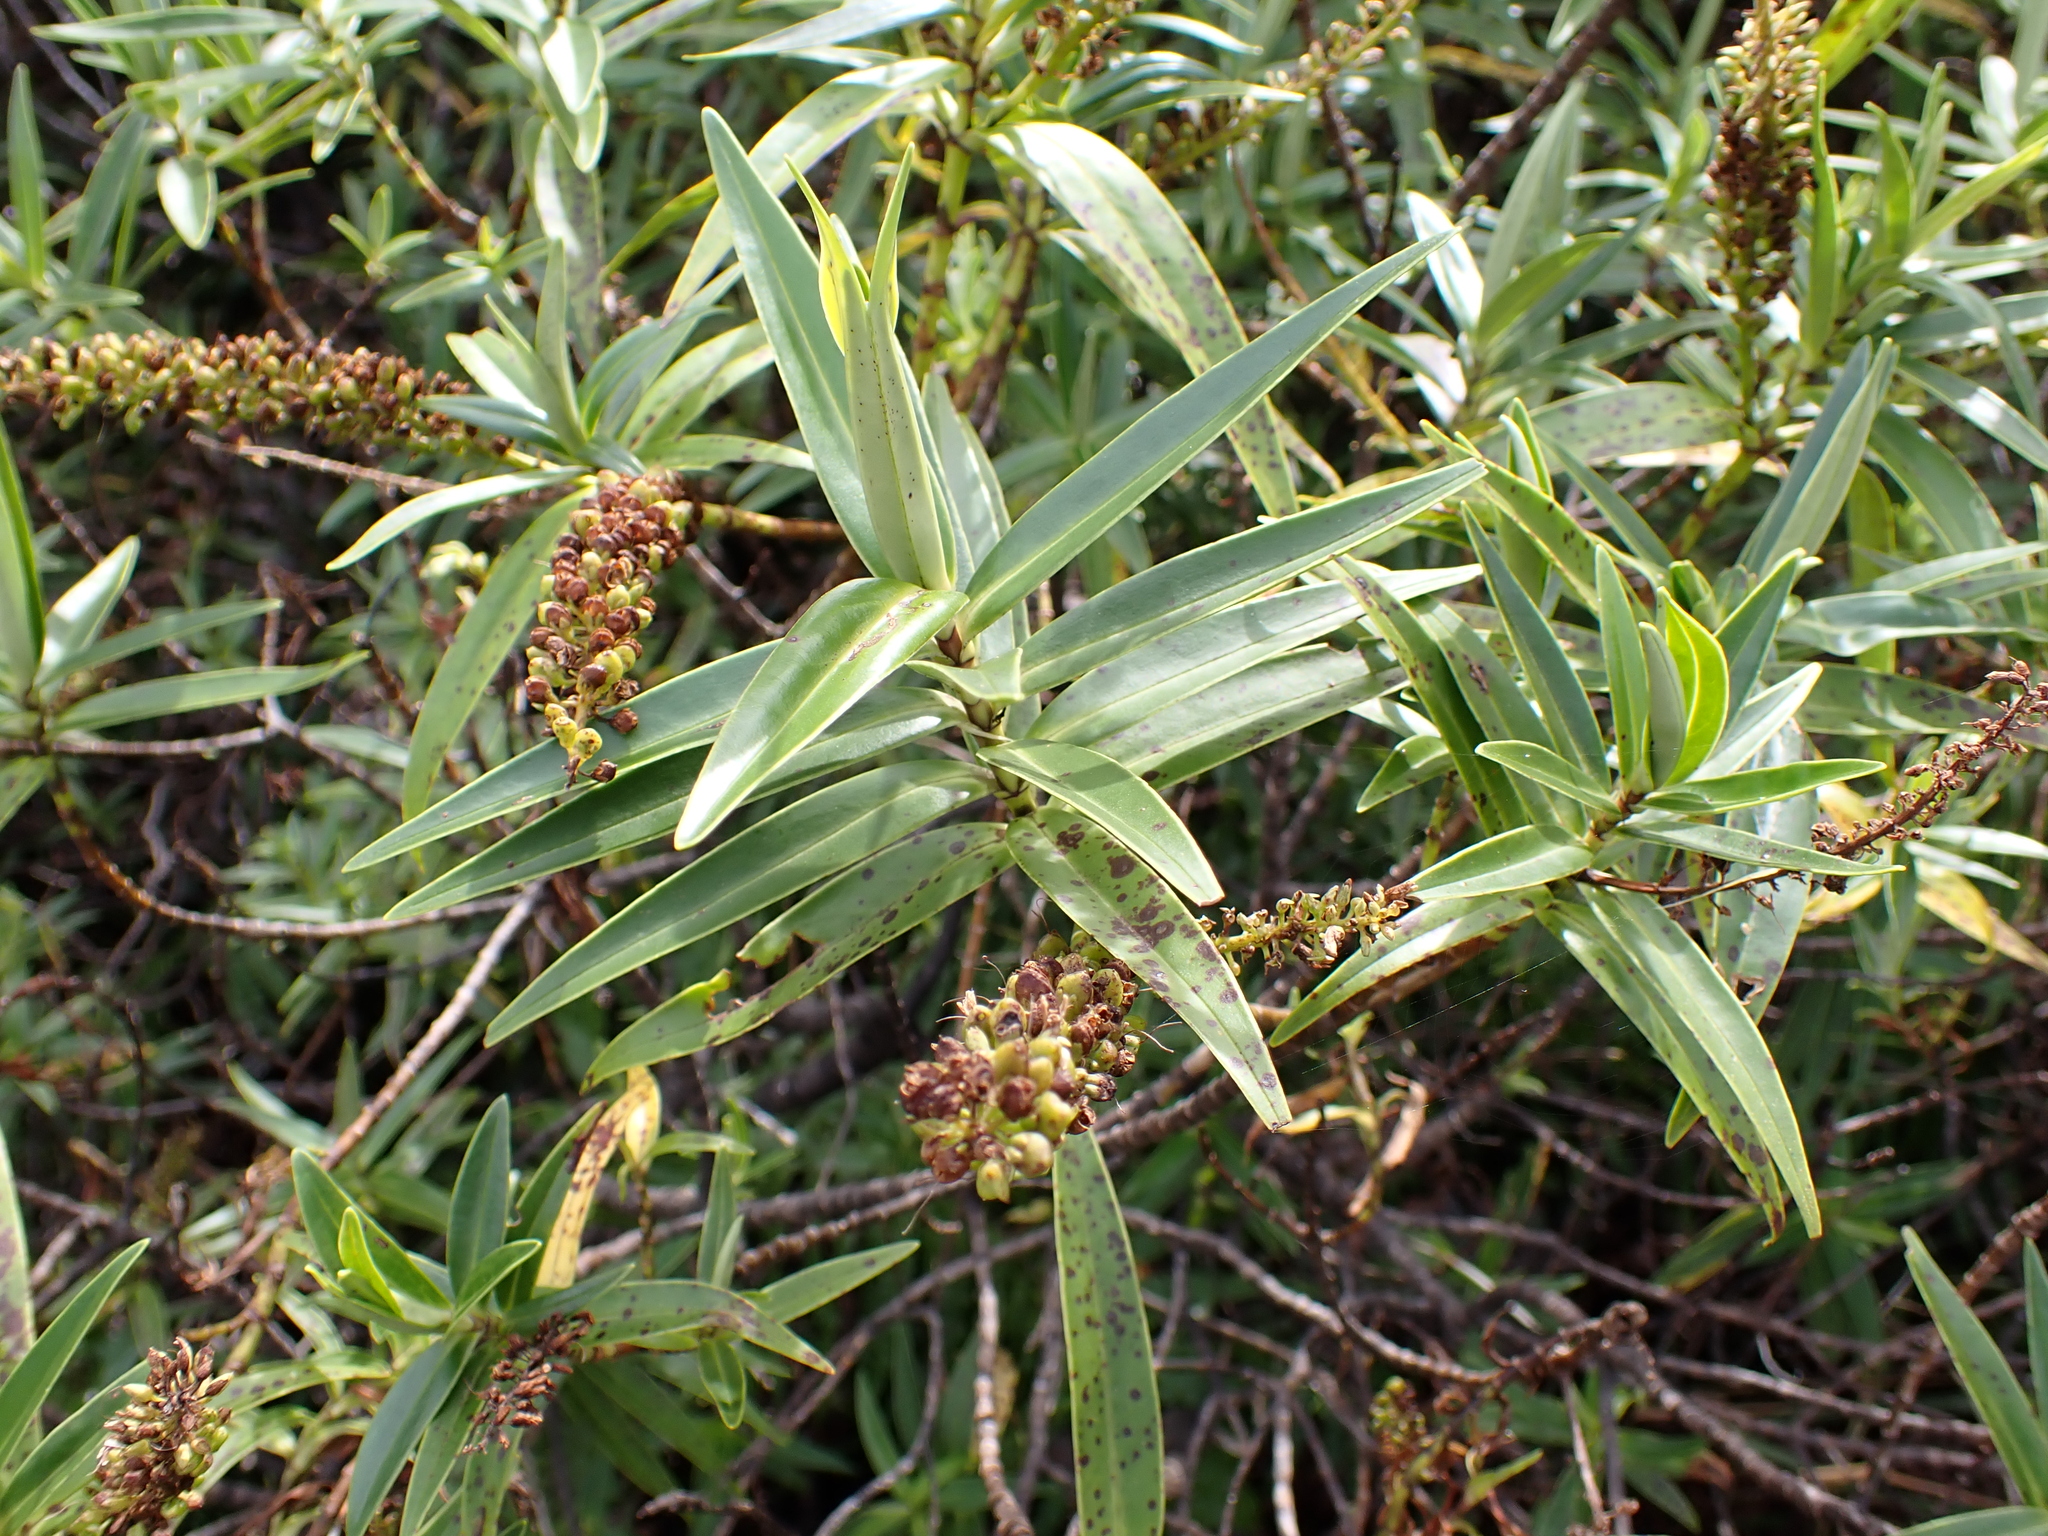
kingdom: Plantae
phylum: Tracheophyta
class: Magnoliopsida
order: Lamiales
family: Plantaginaceae
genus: Veronica
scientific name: Veronica stricta
